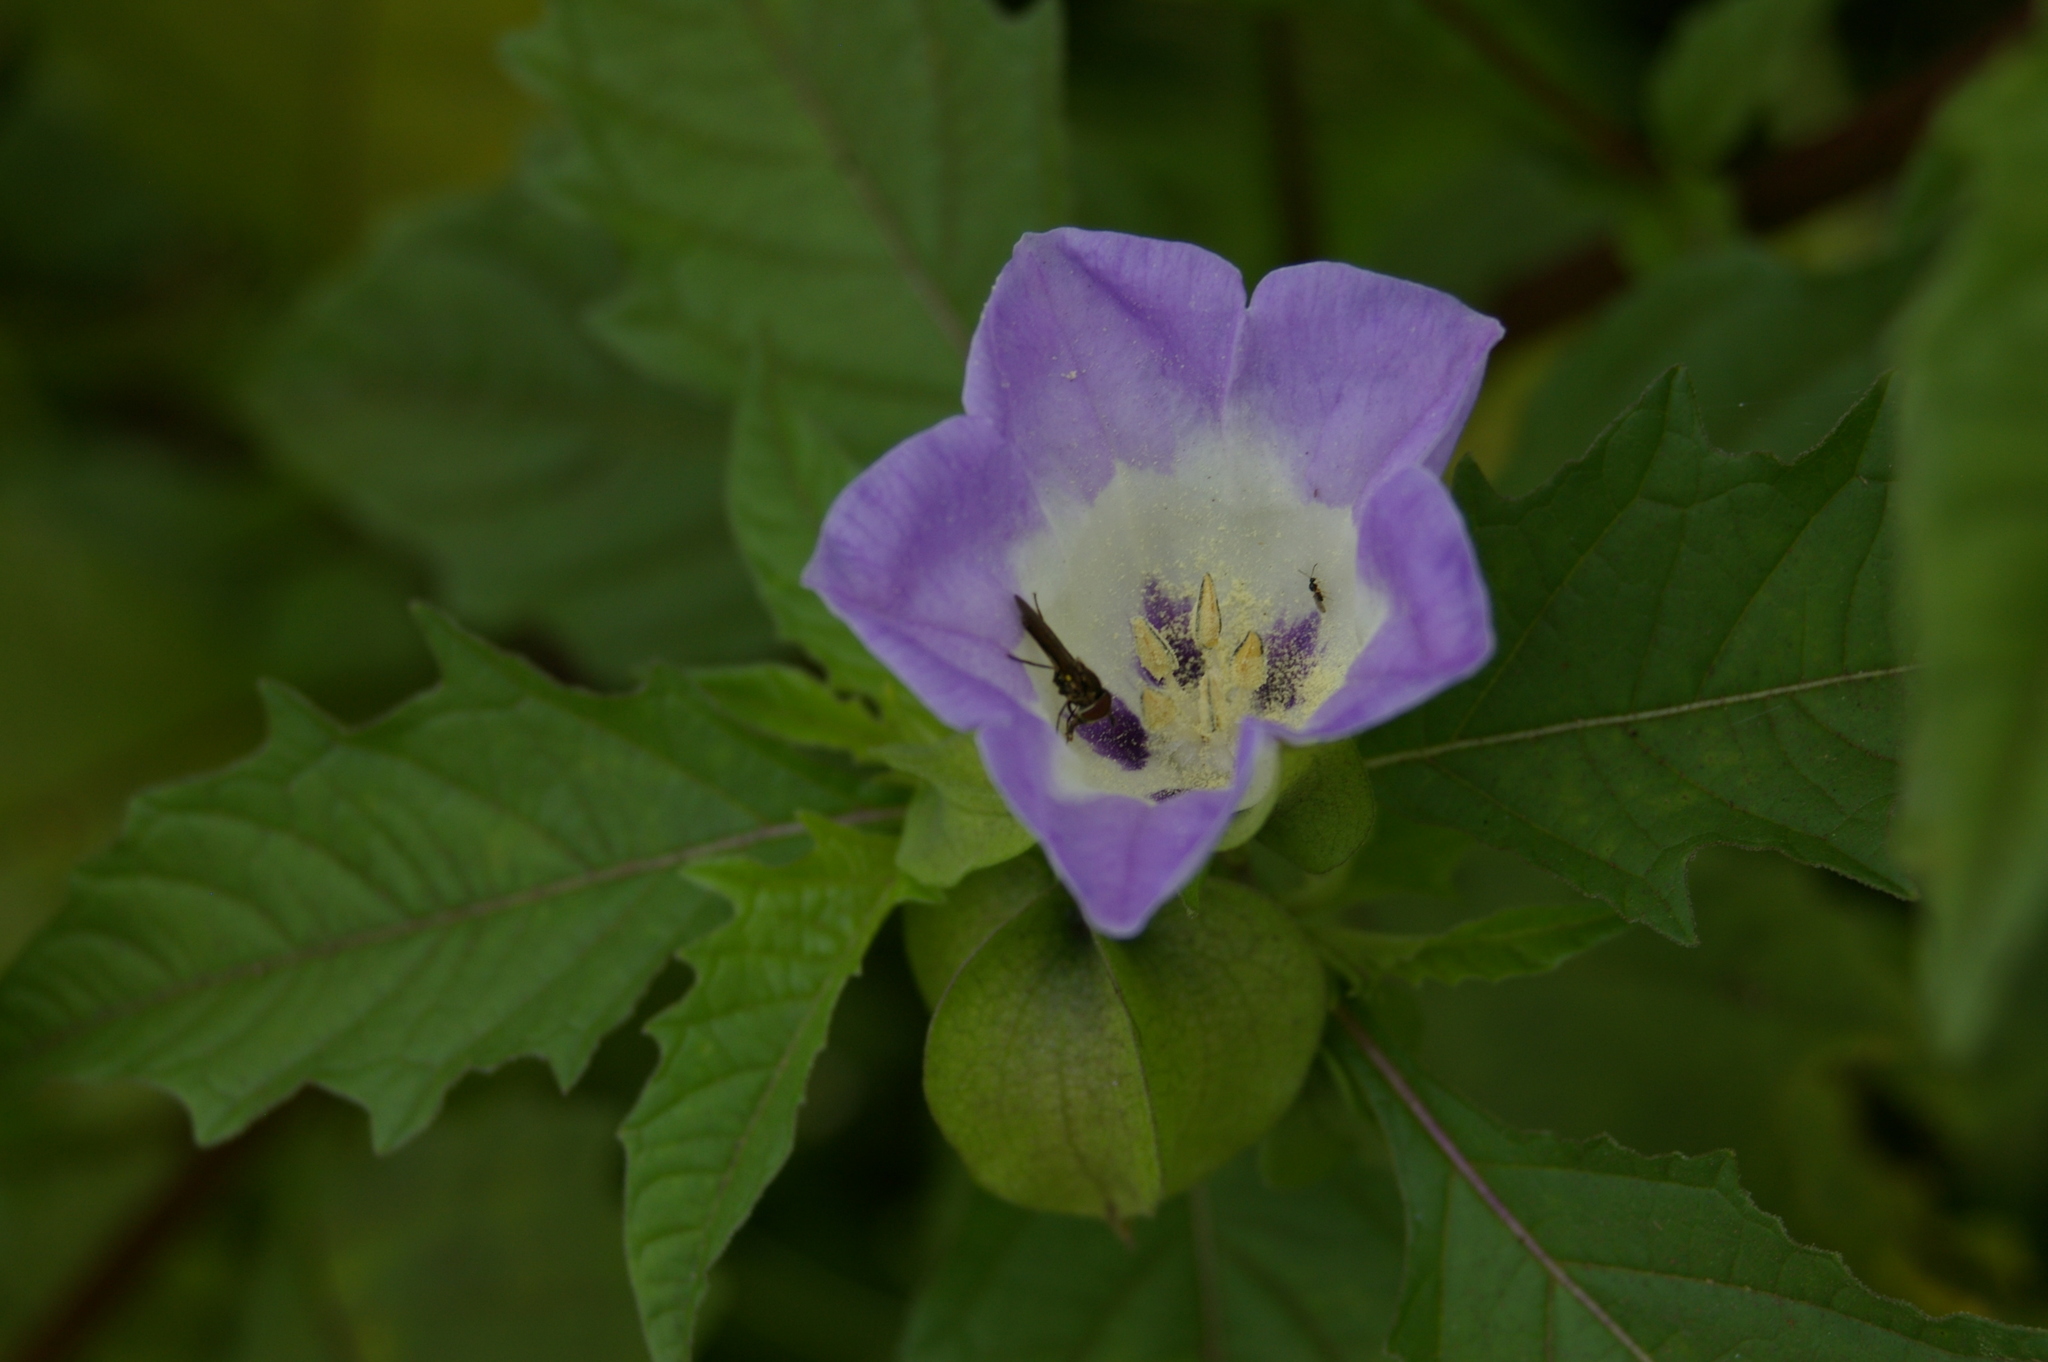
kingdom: Plantae
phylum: Tracheophyta
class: Magnoliopsida
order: Solanales
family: Solanaceae
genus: Nicandra
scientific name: Nicandra physalodes
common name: Apple-of-peru
